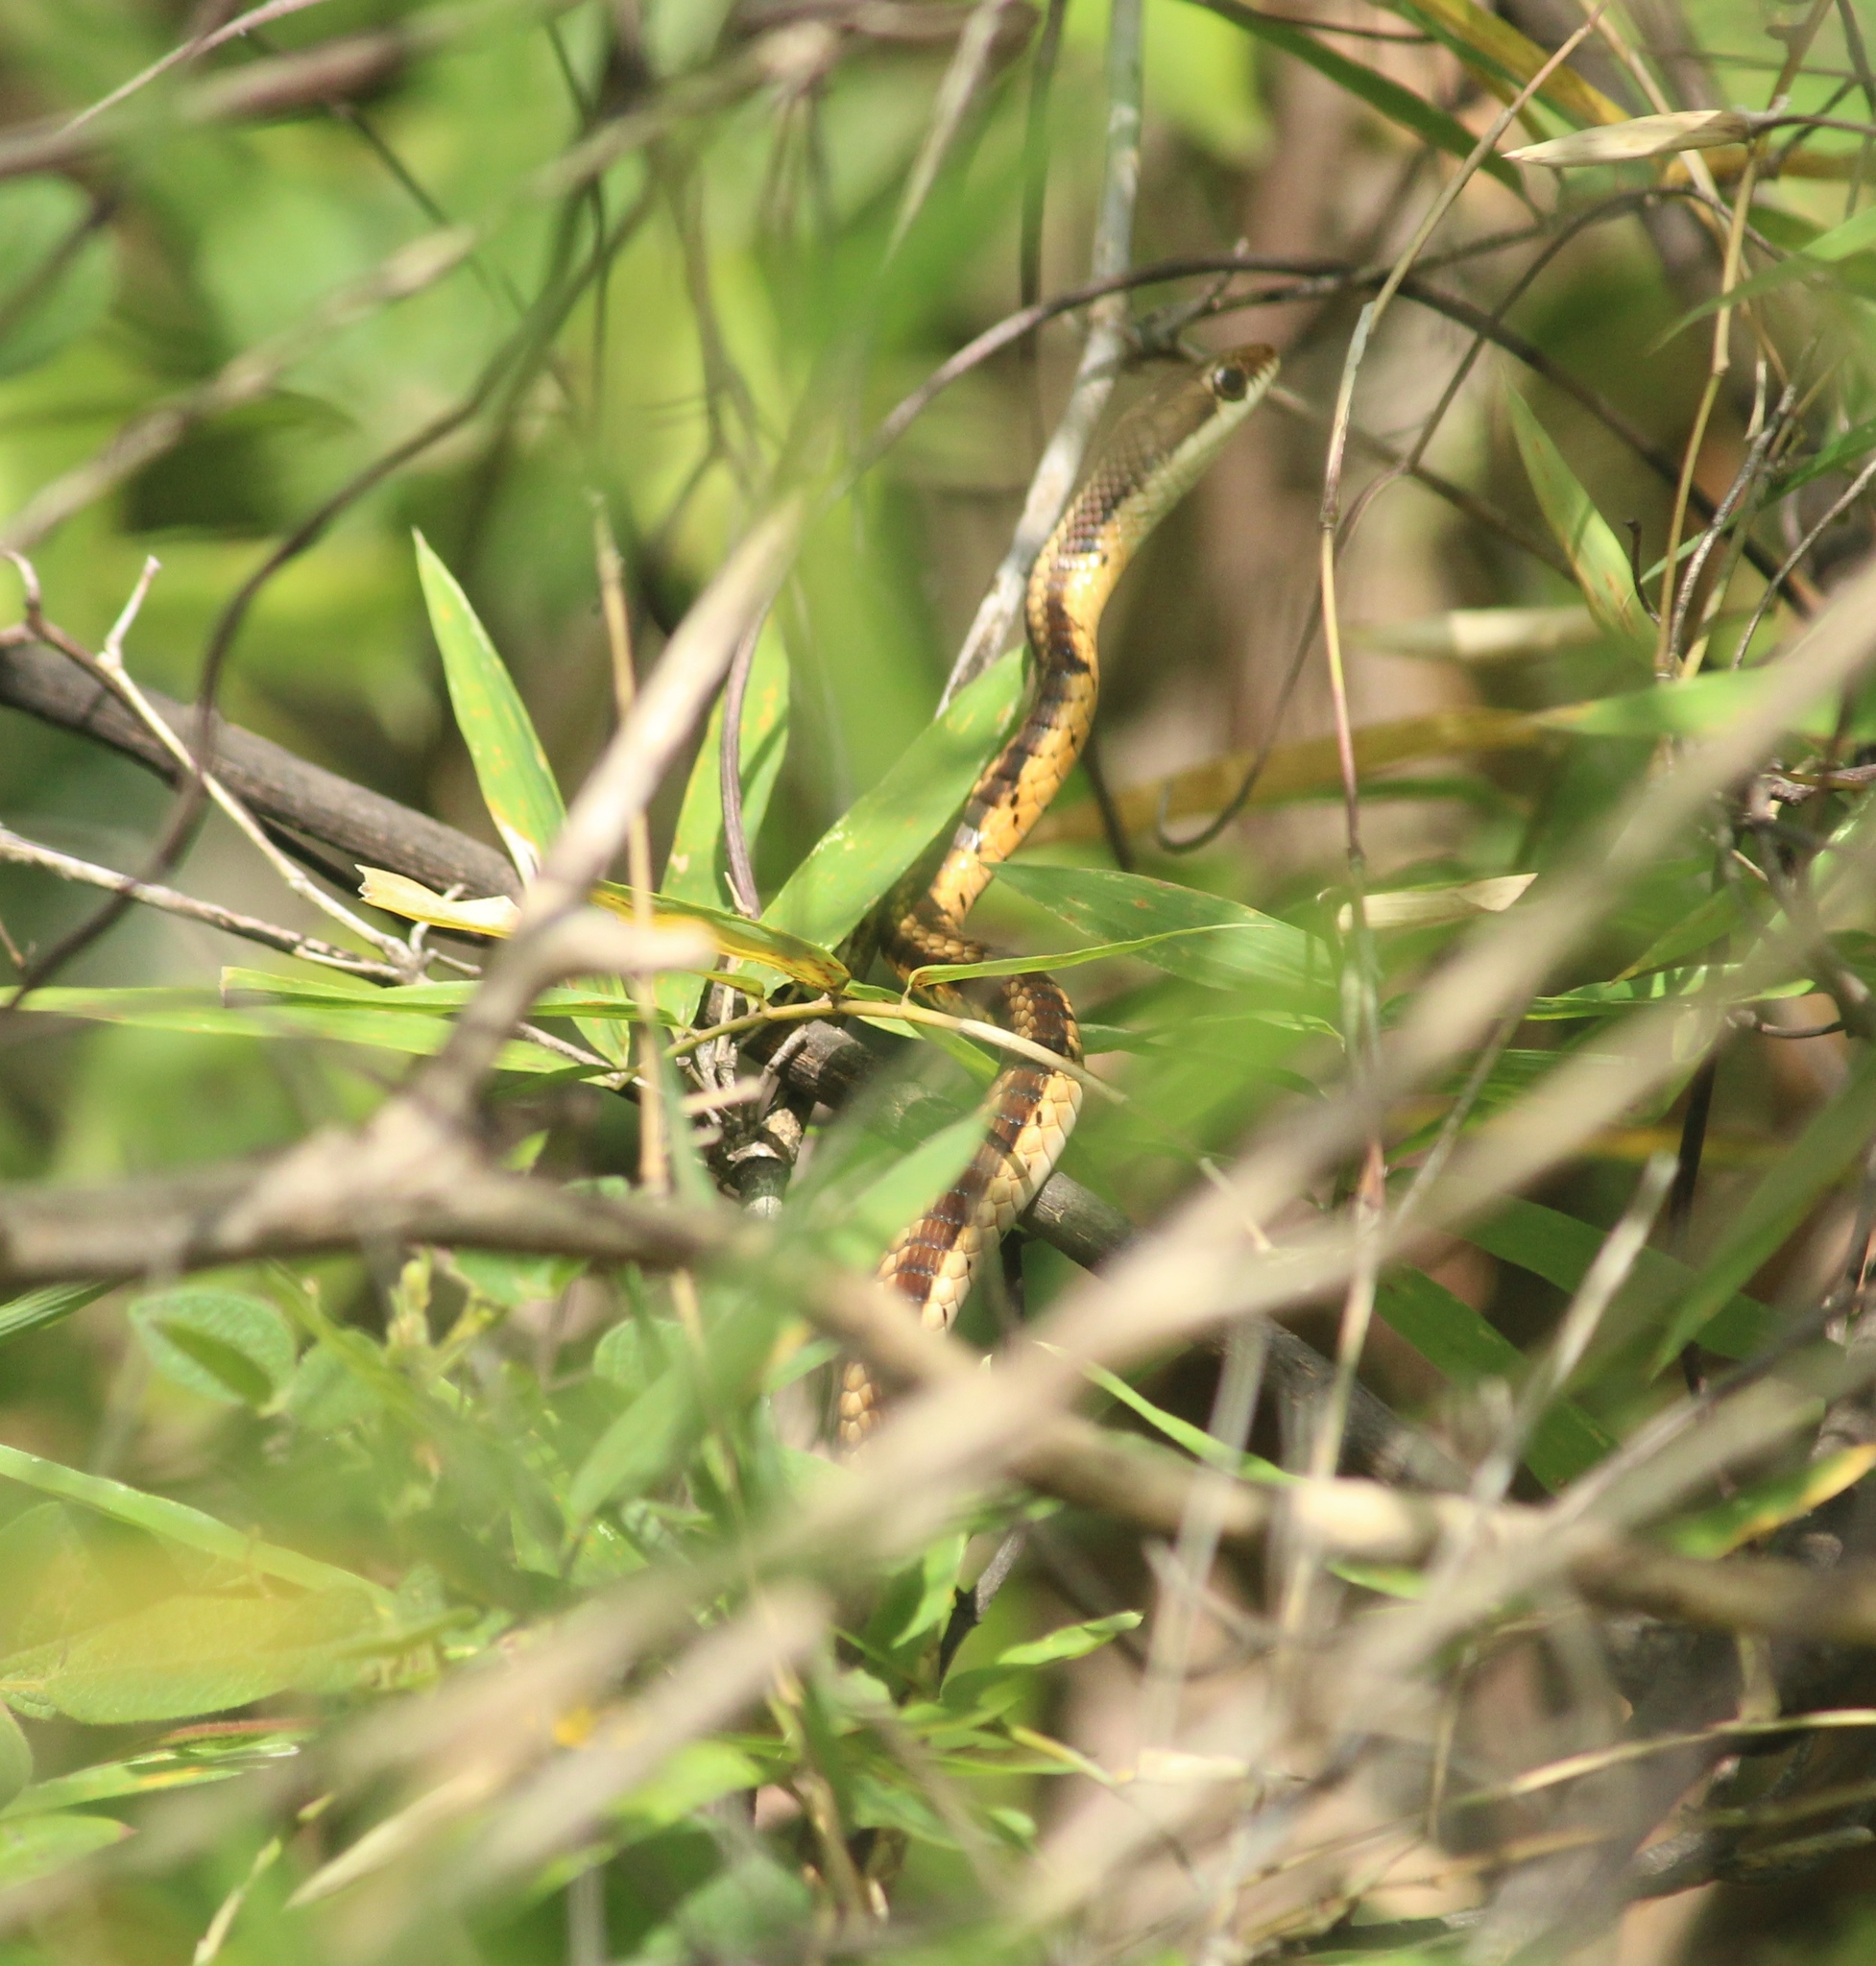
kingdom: Animalia
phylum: Chordata
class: Squamata
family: Colubridae
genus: Dendrelaphis
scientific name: Dendrelaphis tristis
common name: Daudin's bronzeback
